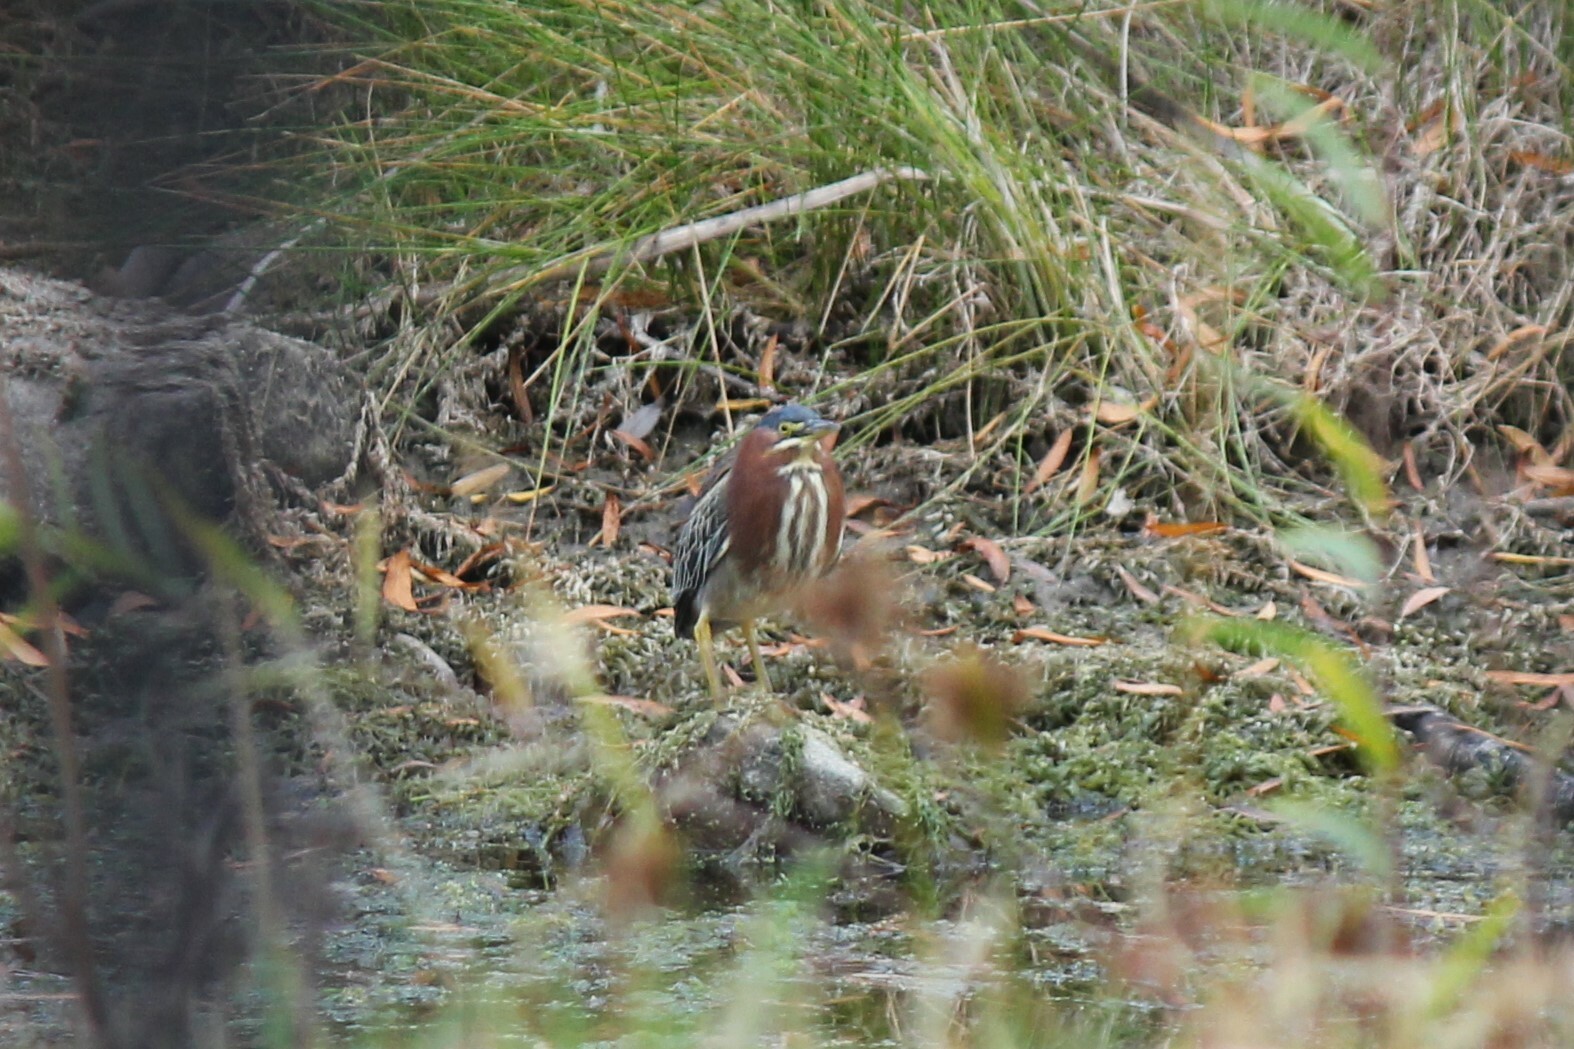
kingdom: Animalia
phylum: Chordata
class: Aves
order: Pelecaniformes
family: Ardeidae
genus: Butorides
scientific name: Butorides virescens
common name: Green heron
